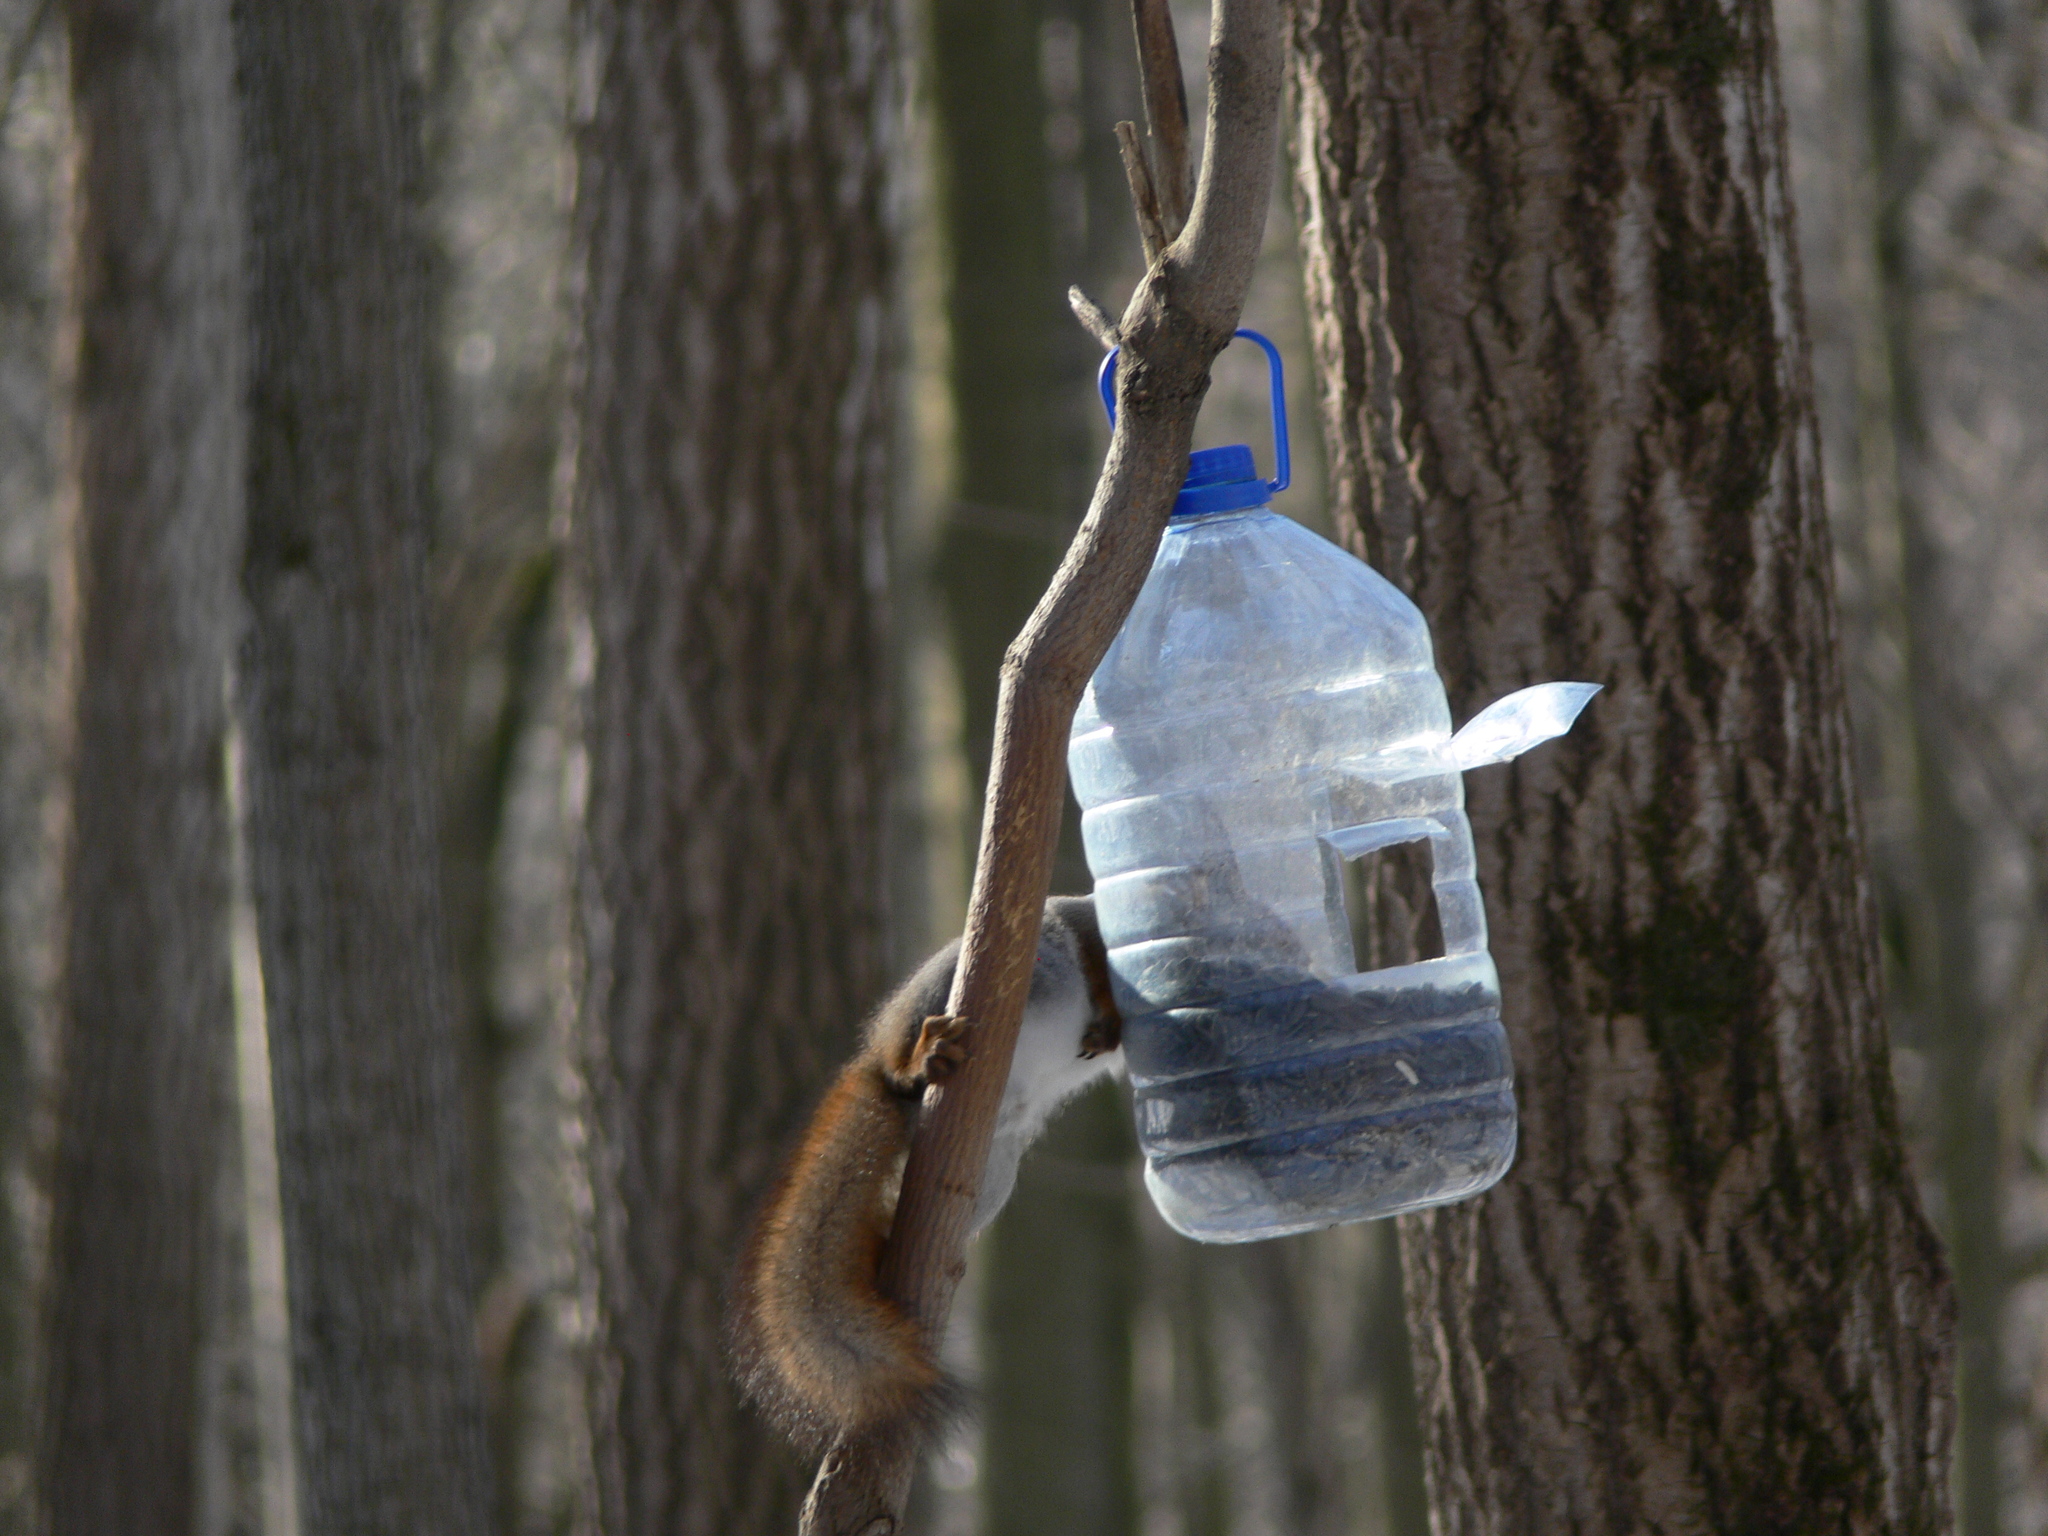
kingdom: Animalia
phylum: Chordata
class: Mammalia
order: Rodentia
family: Sciuridae
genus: Sciurus
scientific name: Sciurus vulgaris
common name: Eurasian red squirrel
